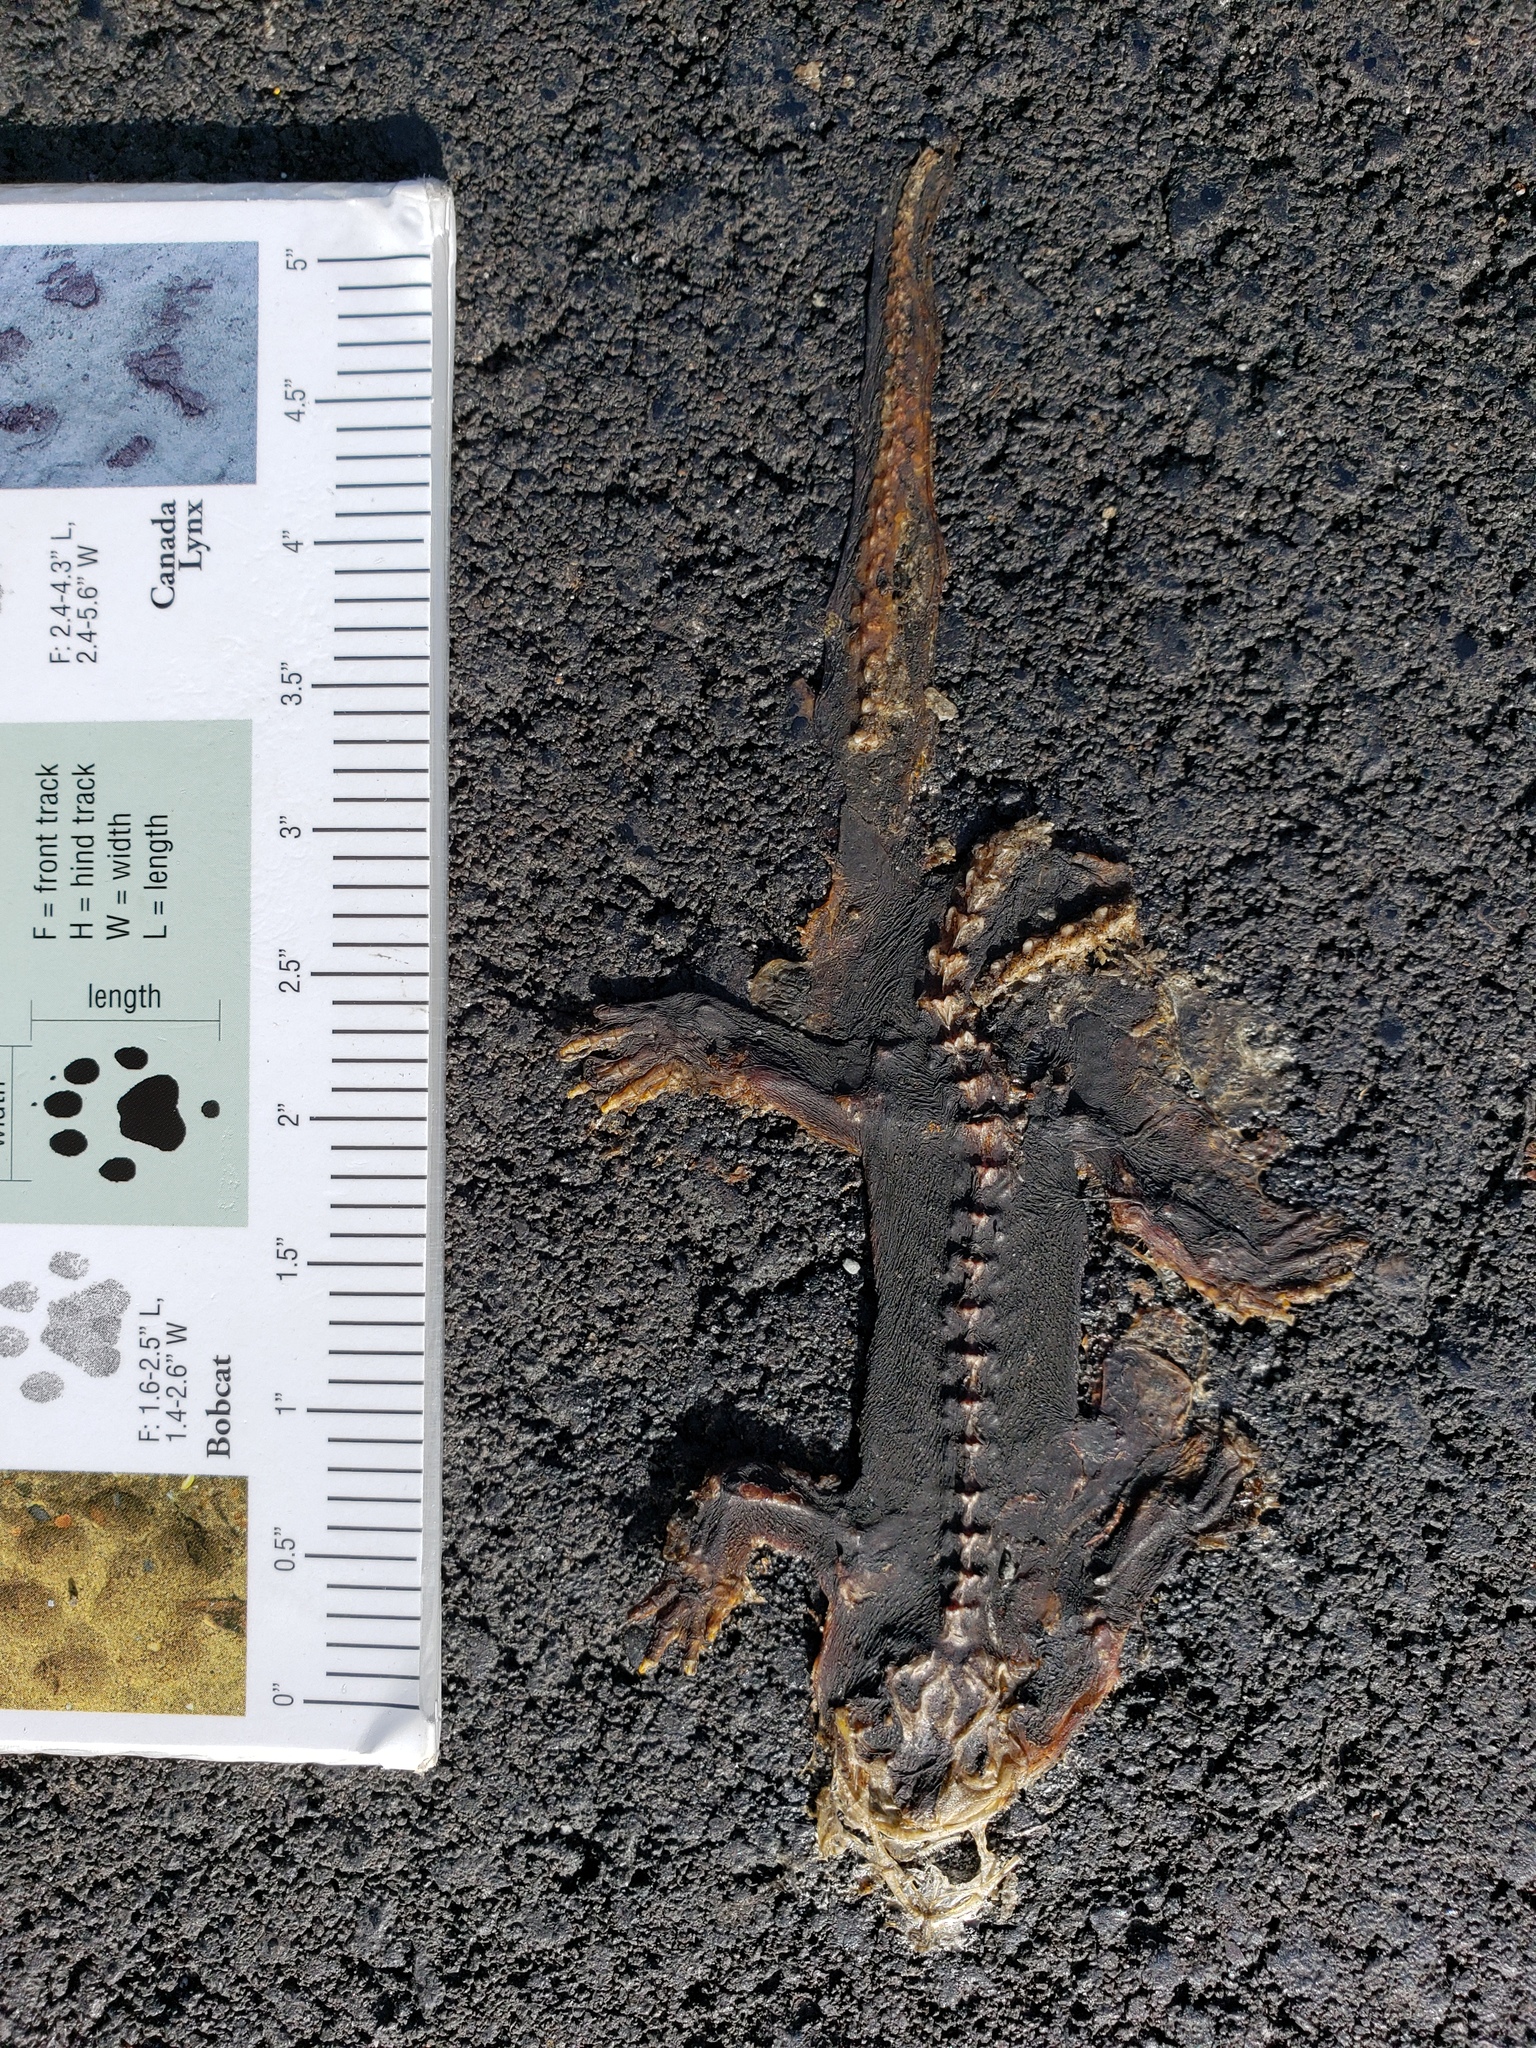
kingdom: Animalia
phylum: Chordata
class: Amphibia
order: Caudata
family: Salamandridae
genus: Taricha
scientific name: Taricha
